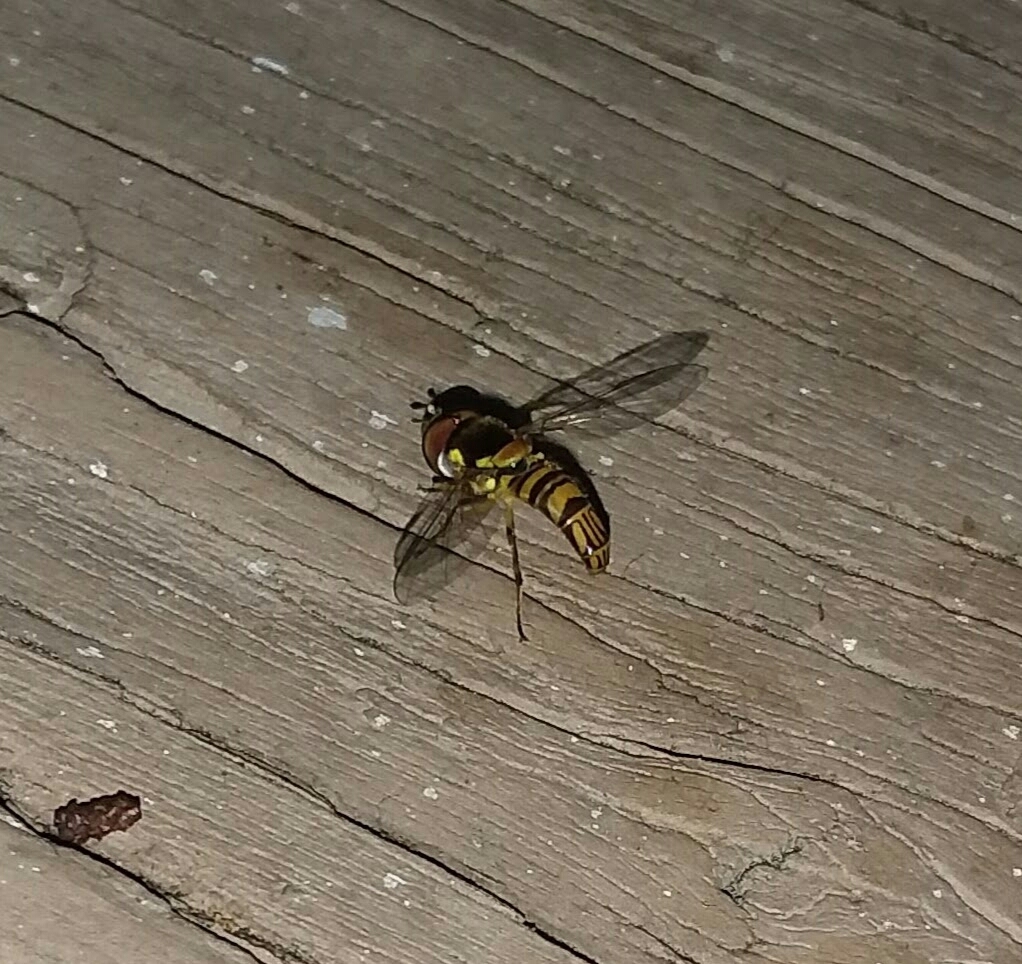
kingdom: Animalia
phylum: Arthropoda
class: Insecta
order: Diptera
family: Syrphidae
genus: Allograpta
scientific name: Allograpta obliqua
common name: Common oblique syrphid
